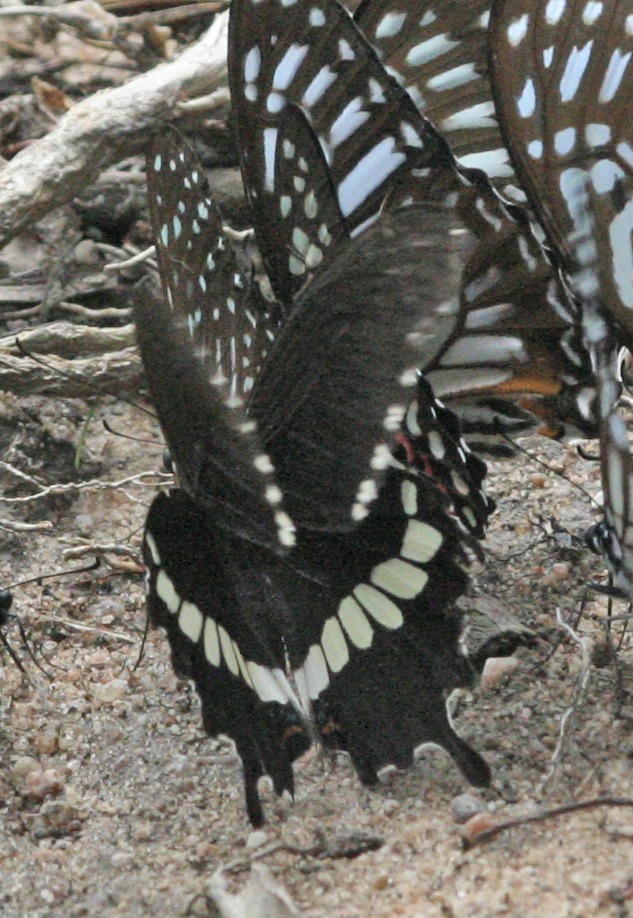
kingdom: Animalia
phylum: Arthropoda
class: Insecta
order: Lepidoptera
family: Papilionidae
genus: Papilio
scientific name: Papilio polytes
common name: Common mormon
